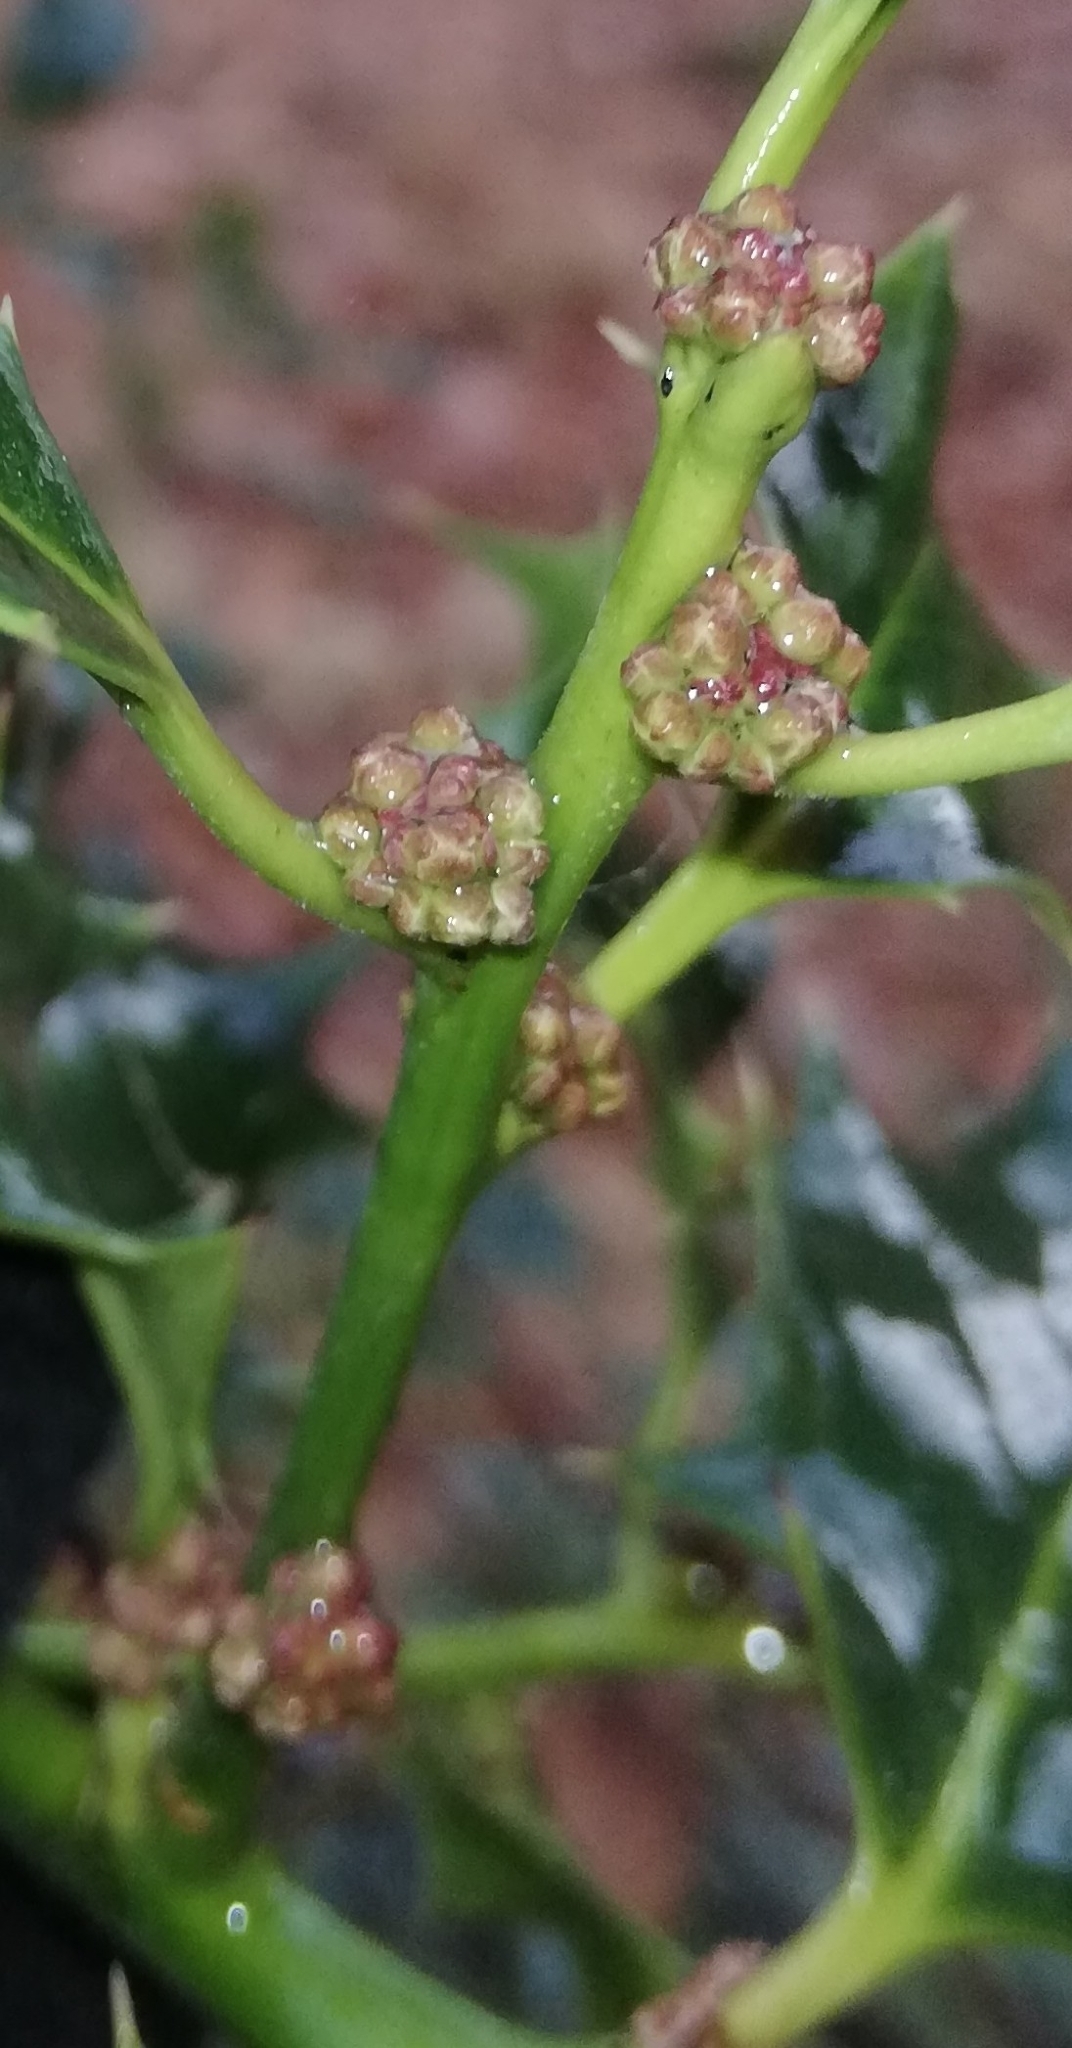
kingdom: Plantae
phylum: Tracheophyta
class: Magnoliopsida
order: Aquifoliales
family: Aquifoliaceae
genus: Ilex
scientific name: Ilex aquifolium
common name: English holly
